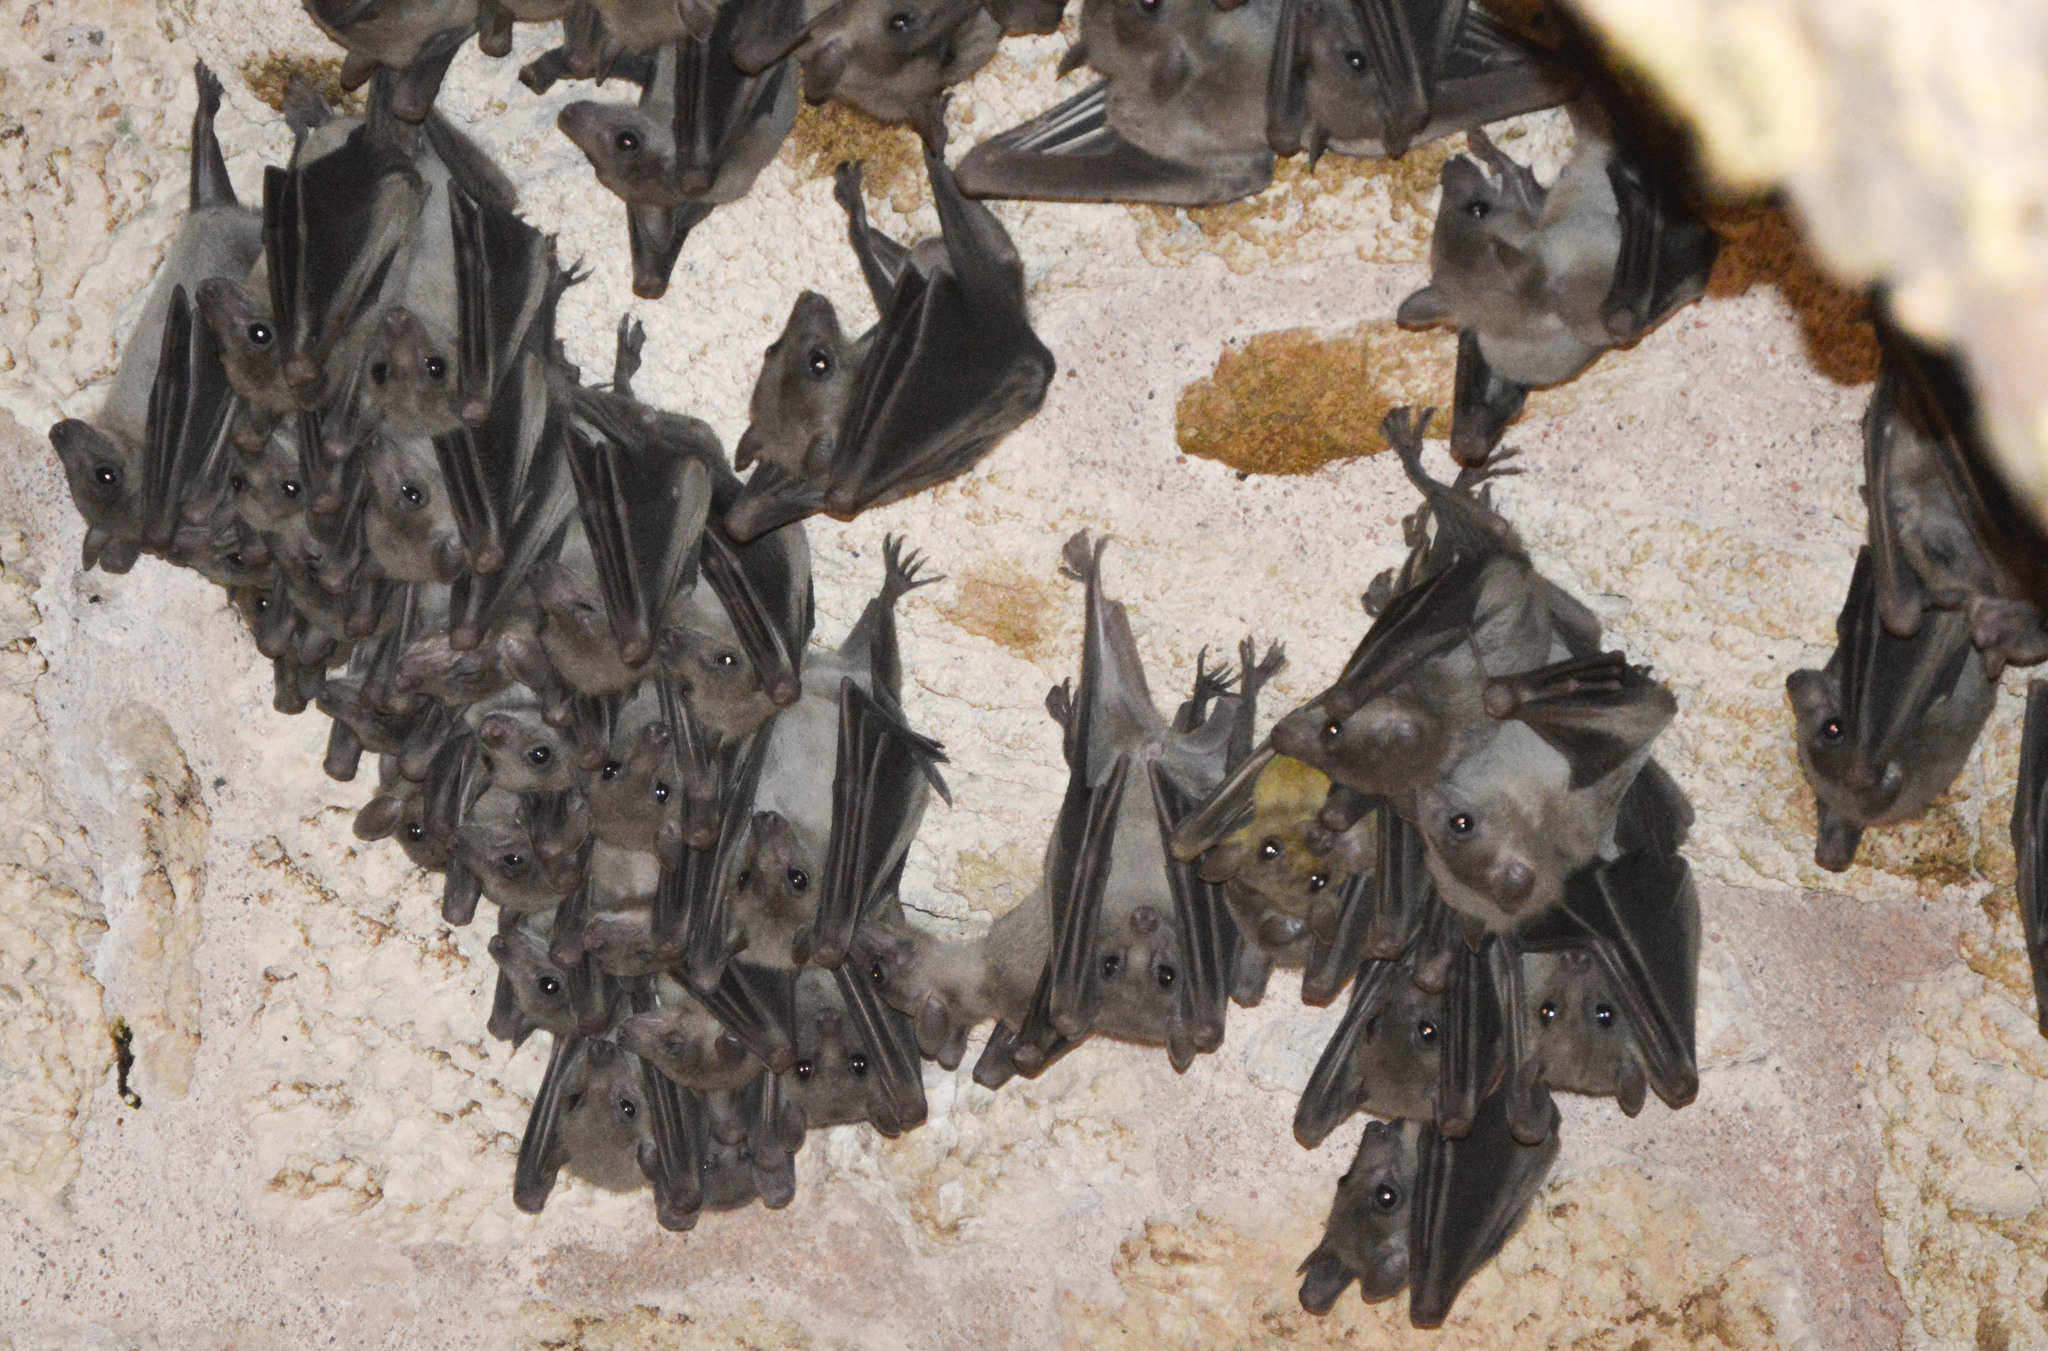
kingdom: Animalia
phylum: Chordata
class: Mammalia
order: Chiroptera
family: Pteropodidae
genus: Rousettus
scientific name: Rousettus aegyptiacus
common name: Egyptian rousette
